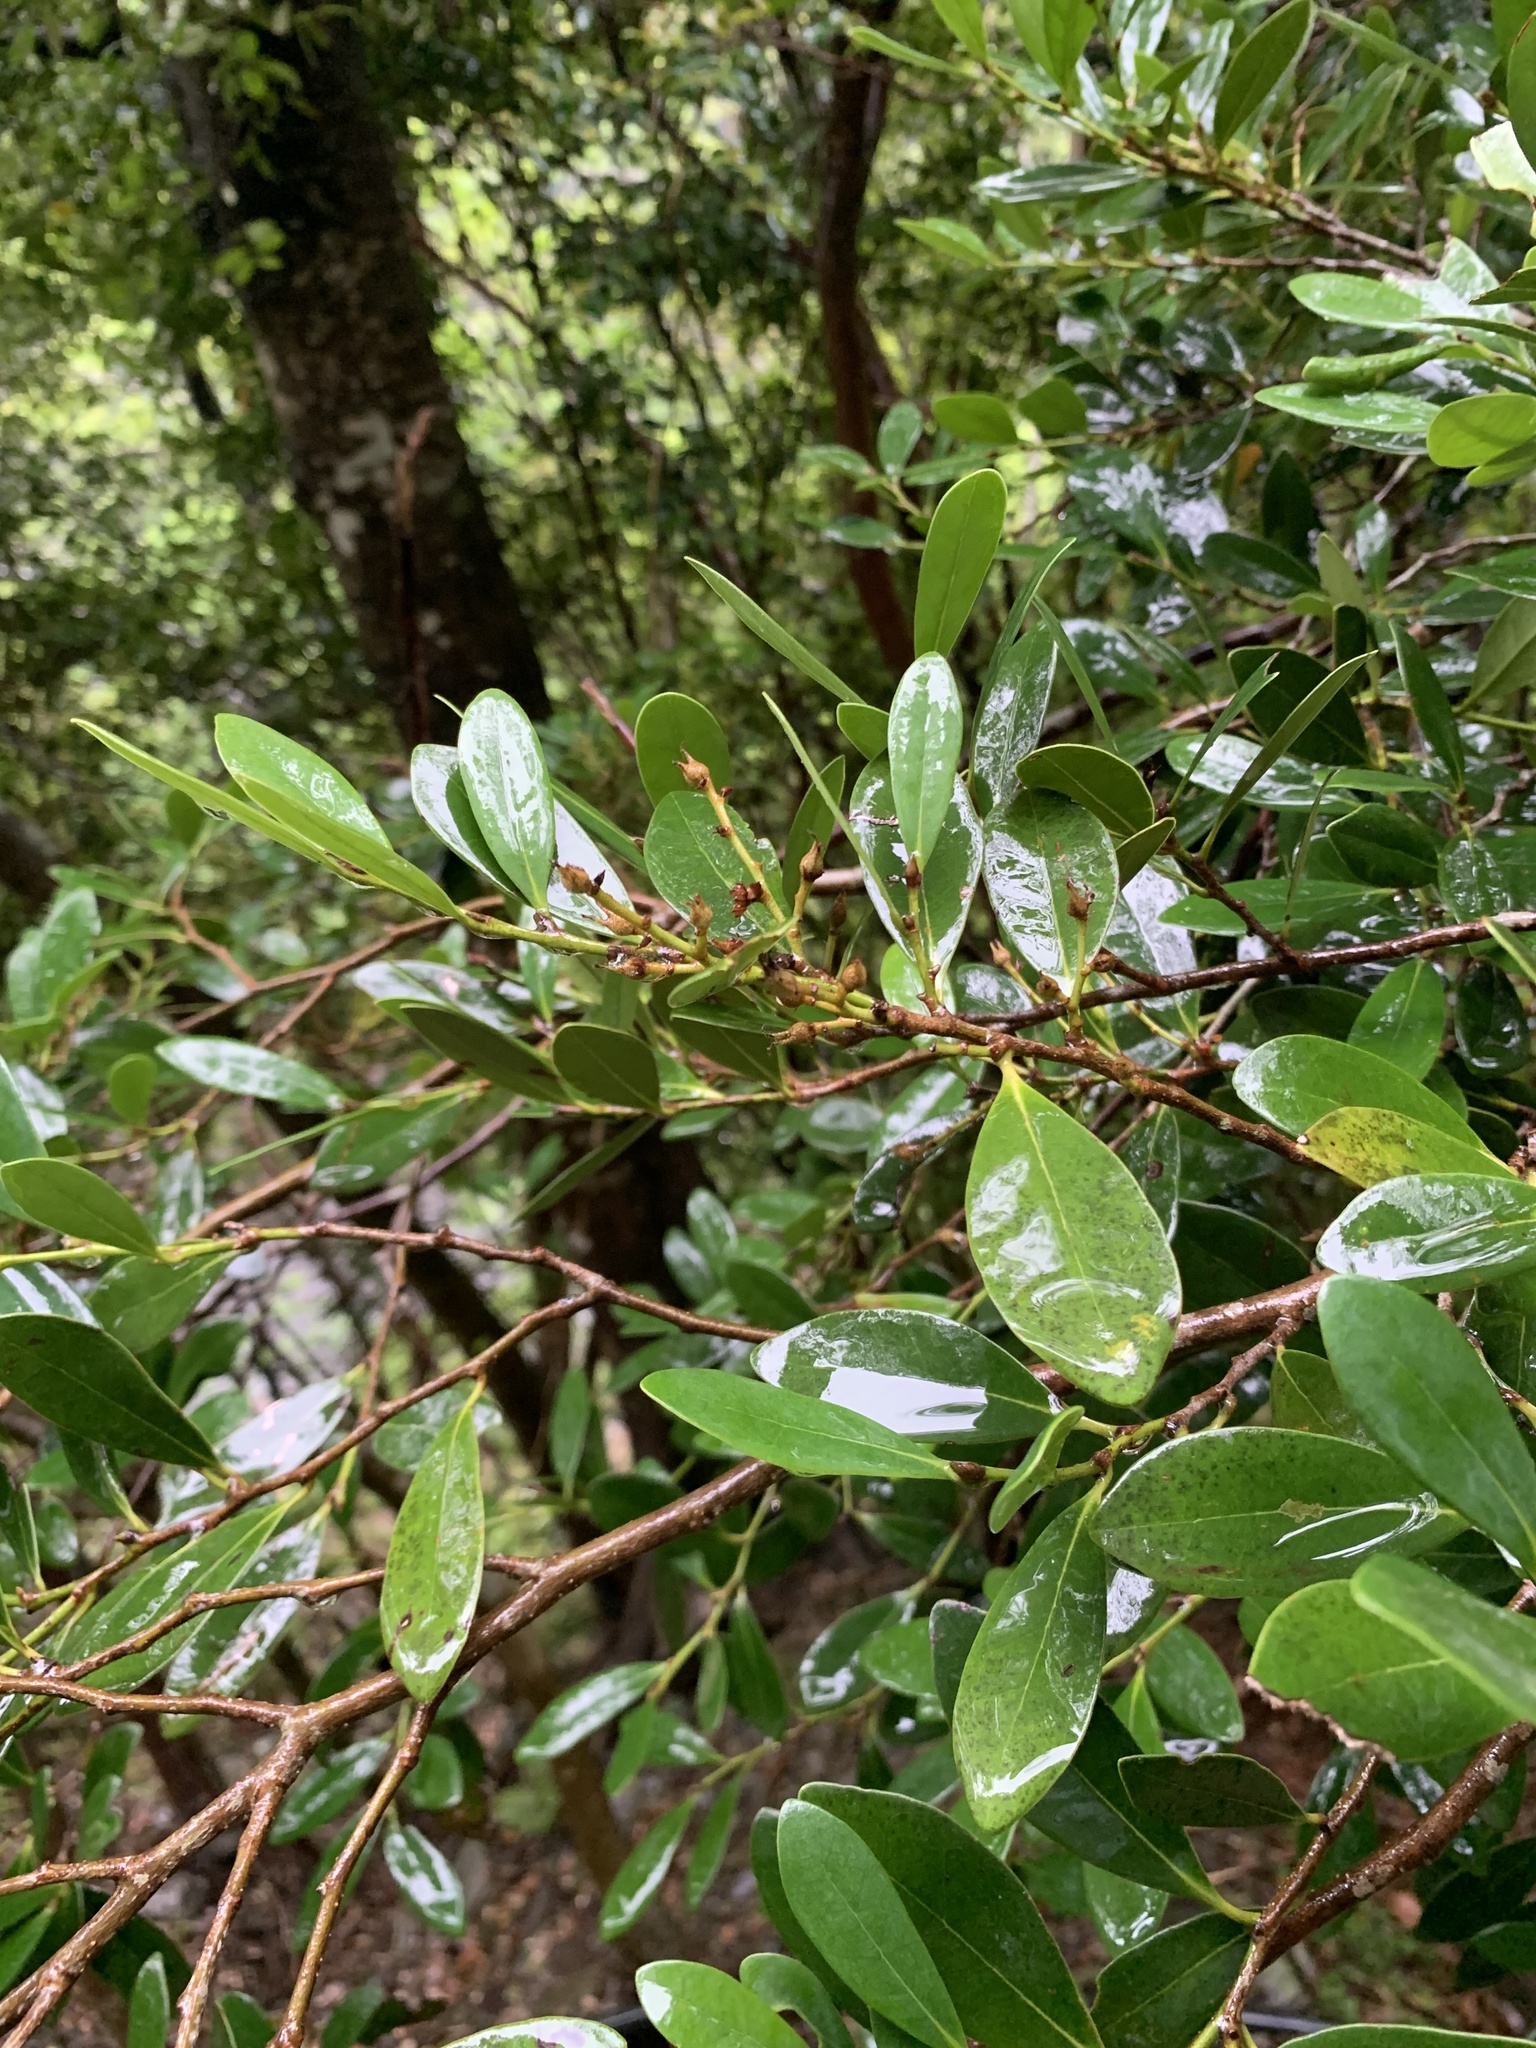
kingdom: Plantae
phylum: Tracheophyta
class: Magnoliopsida
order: Saxifragales
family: Hamamelidaceae
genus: Distylium
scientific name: Distylium racemosum
